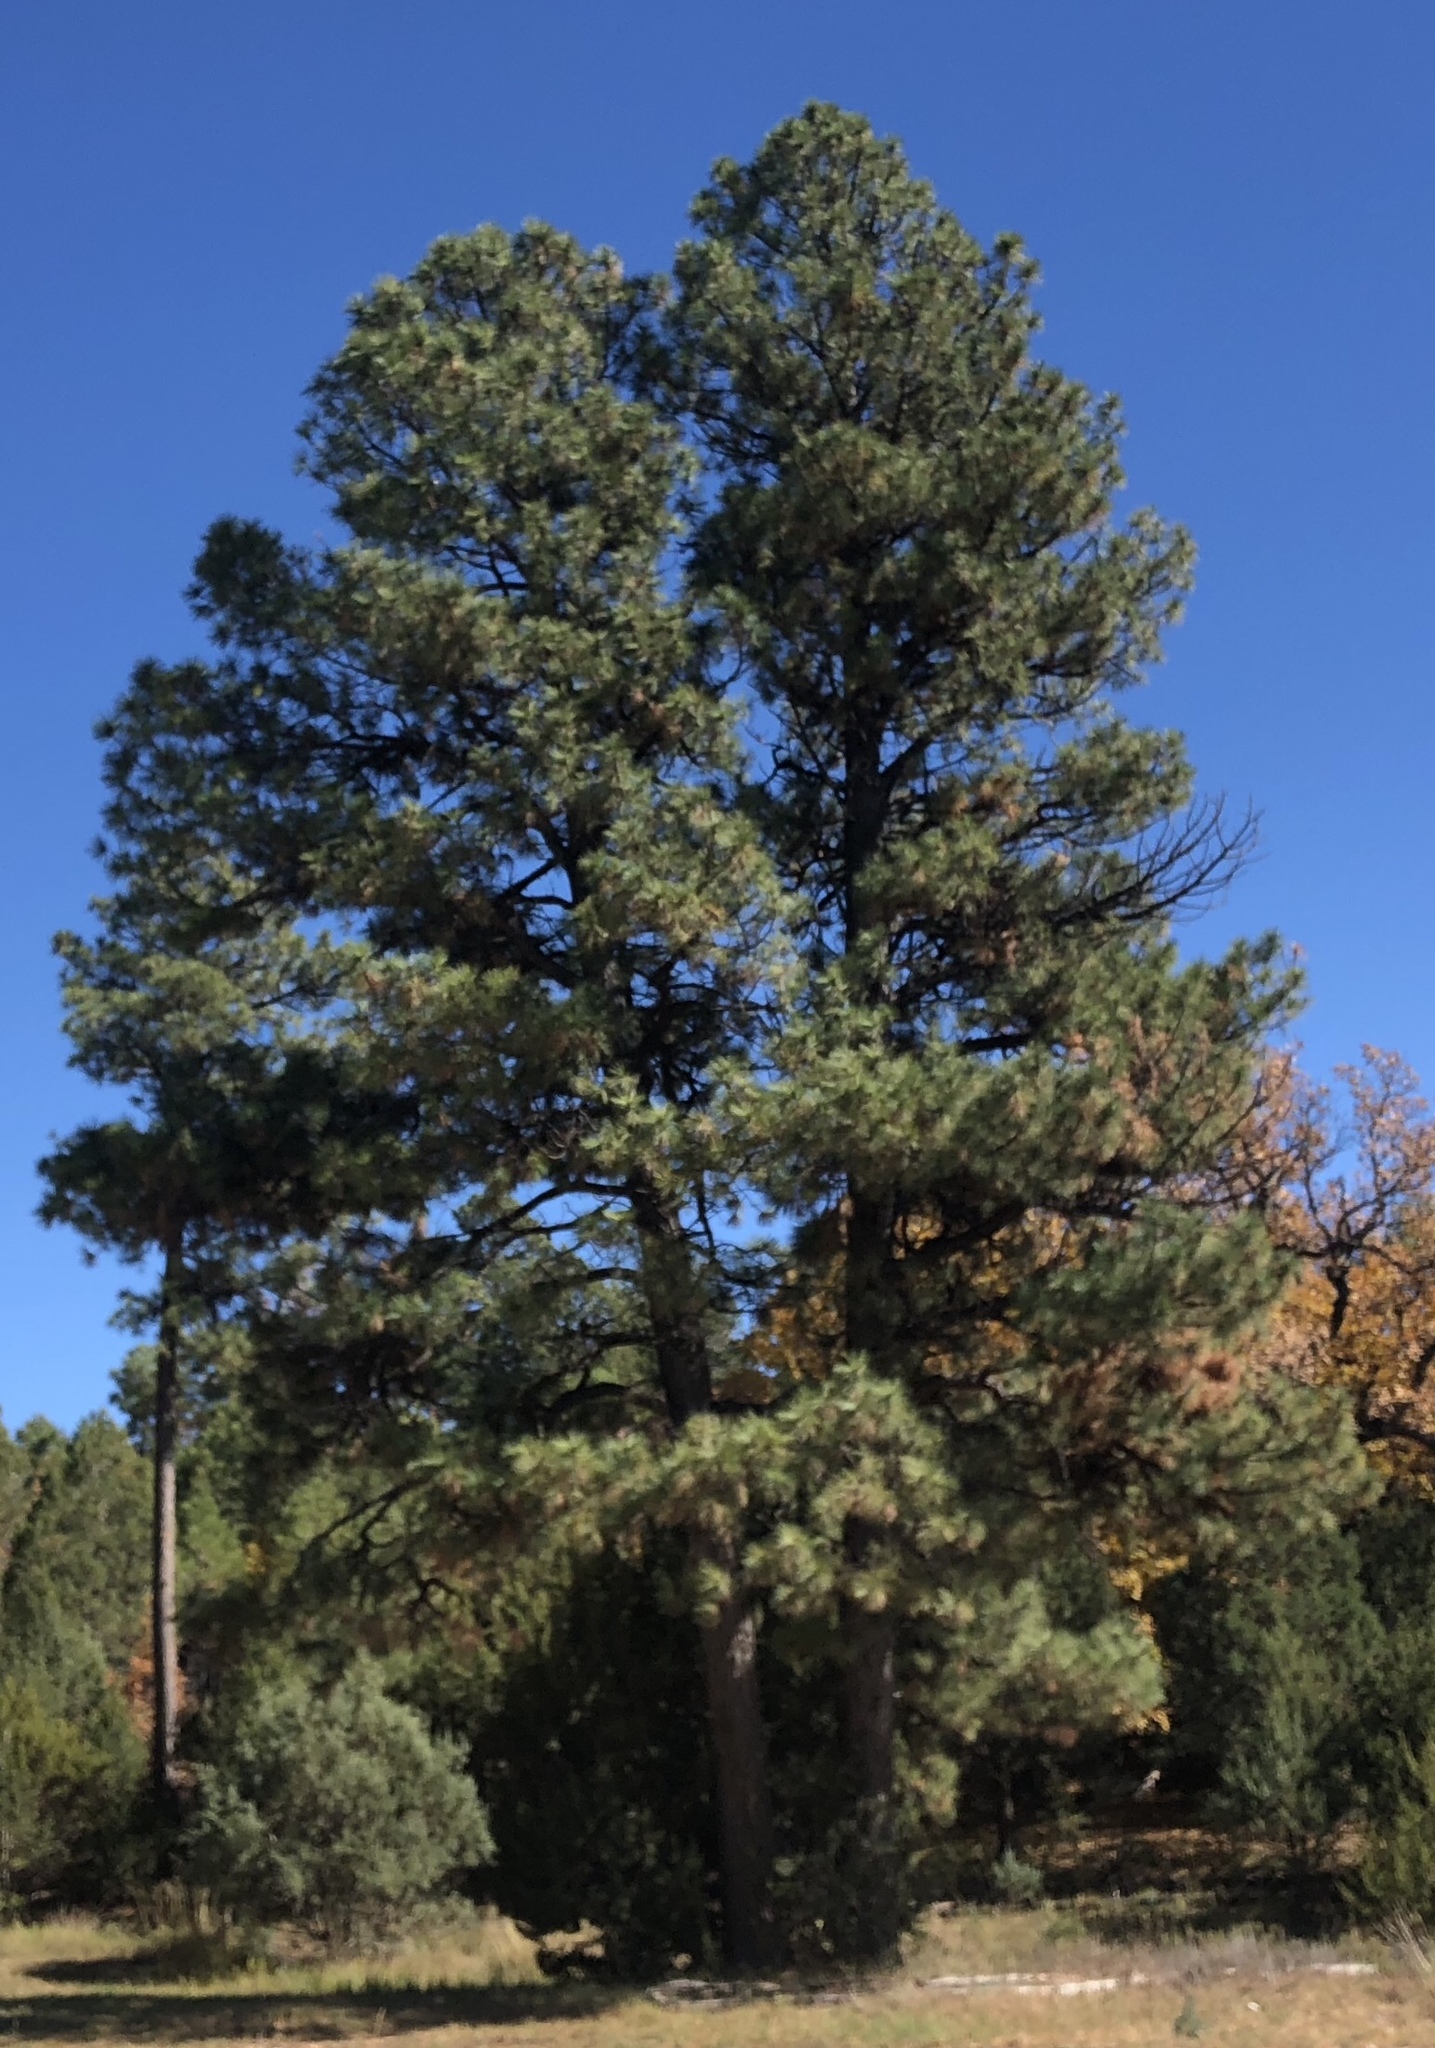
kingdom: Plantae
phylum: Tracheophyta
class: Pinopsida
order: Pinales
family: Pinaceae
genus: Pinus
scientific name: Pinus ponderosa
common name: Western yellow-pine
